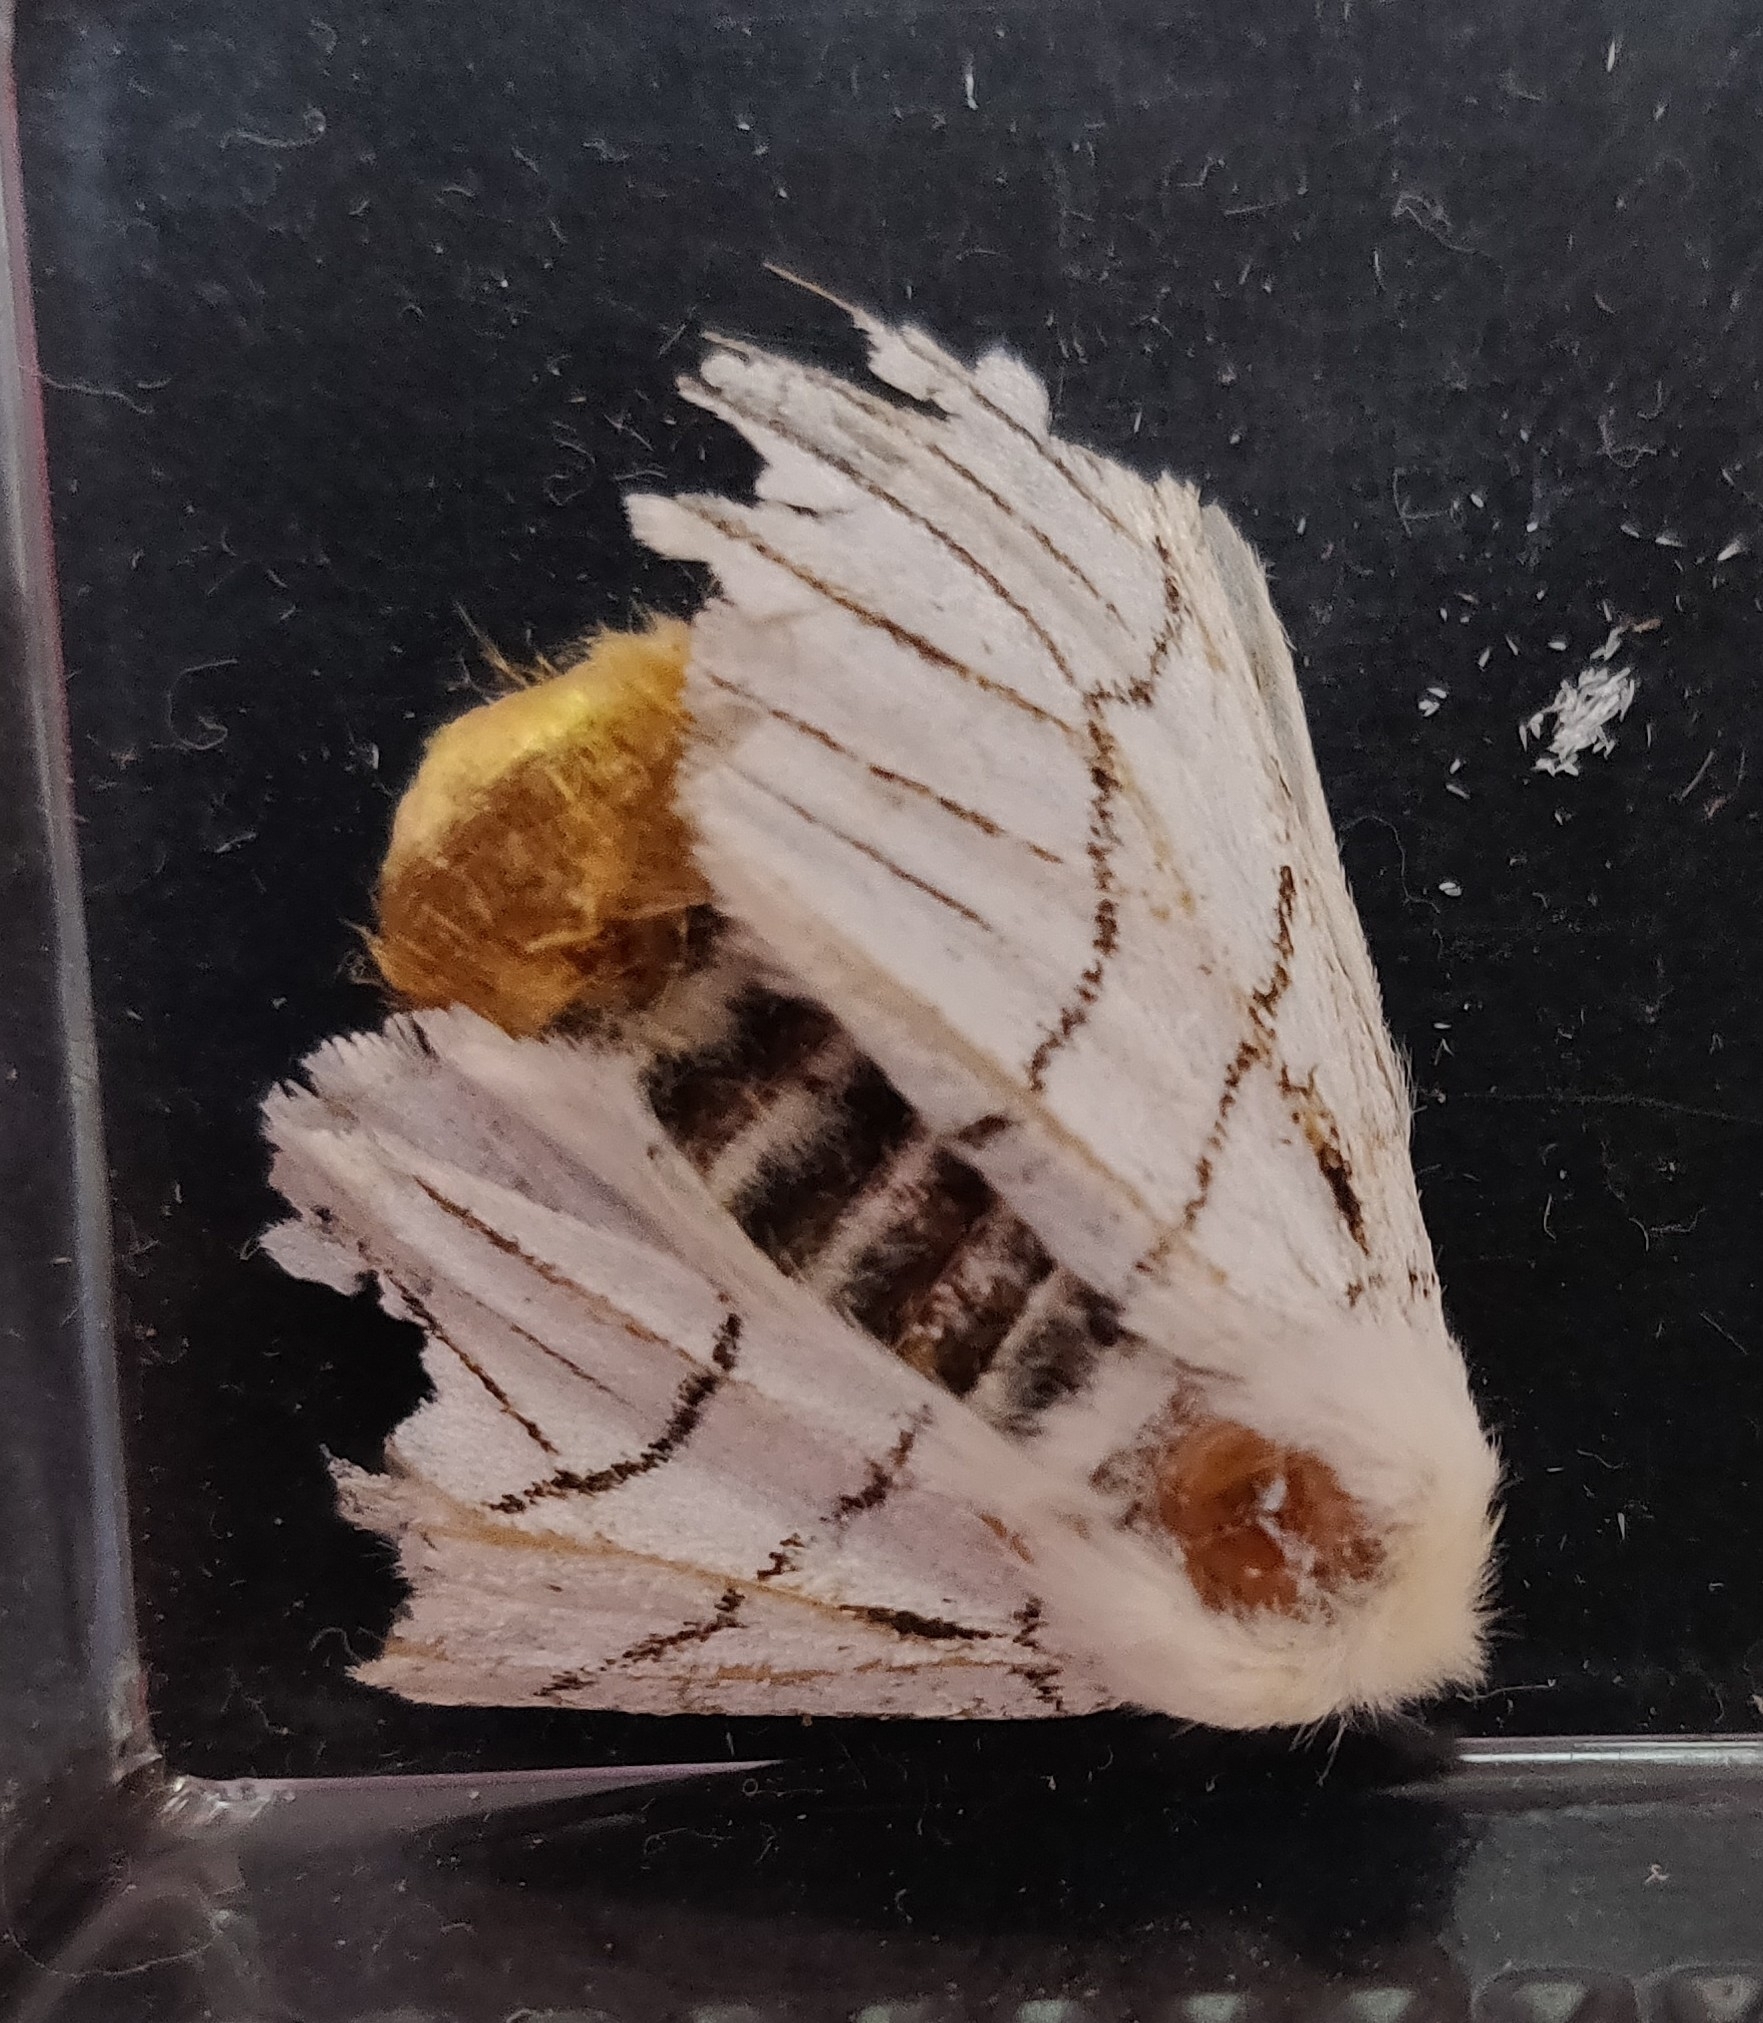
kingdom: Animalia
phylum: Arthropoda
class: Insecta
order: Lepidoptera
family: Notodontidae
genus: Oligoclona
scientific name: Oligoclona chrysolopha
